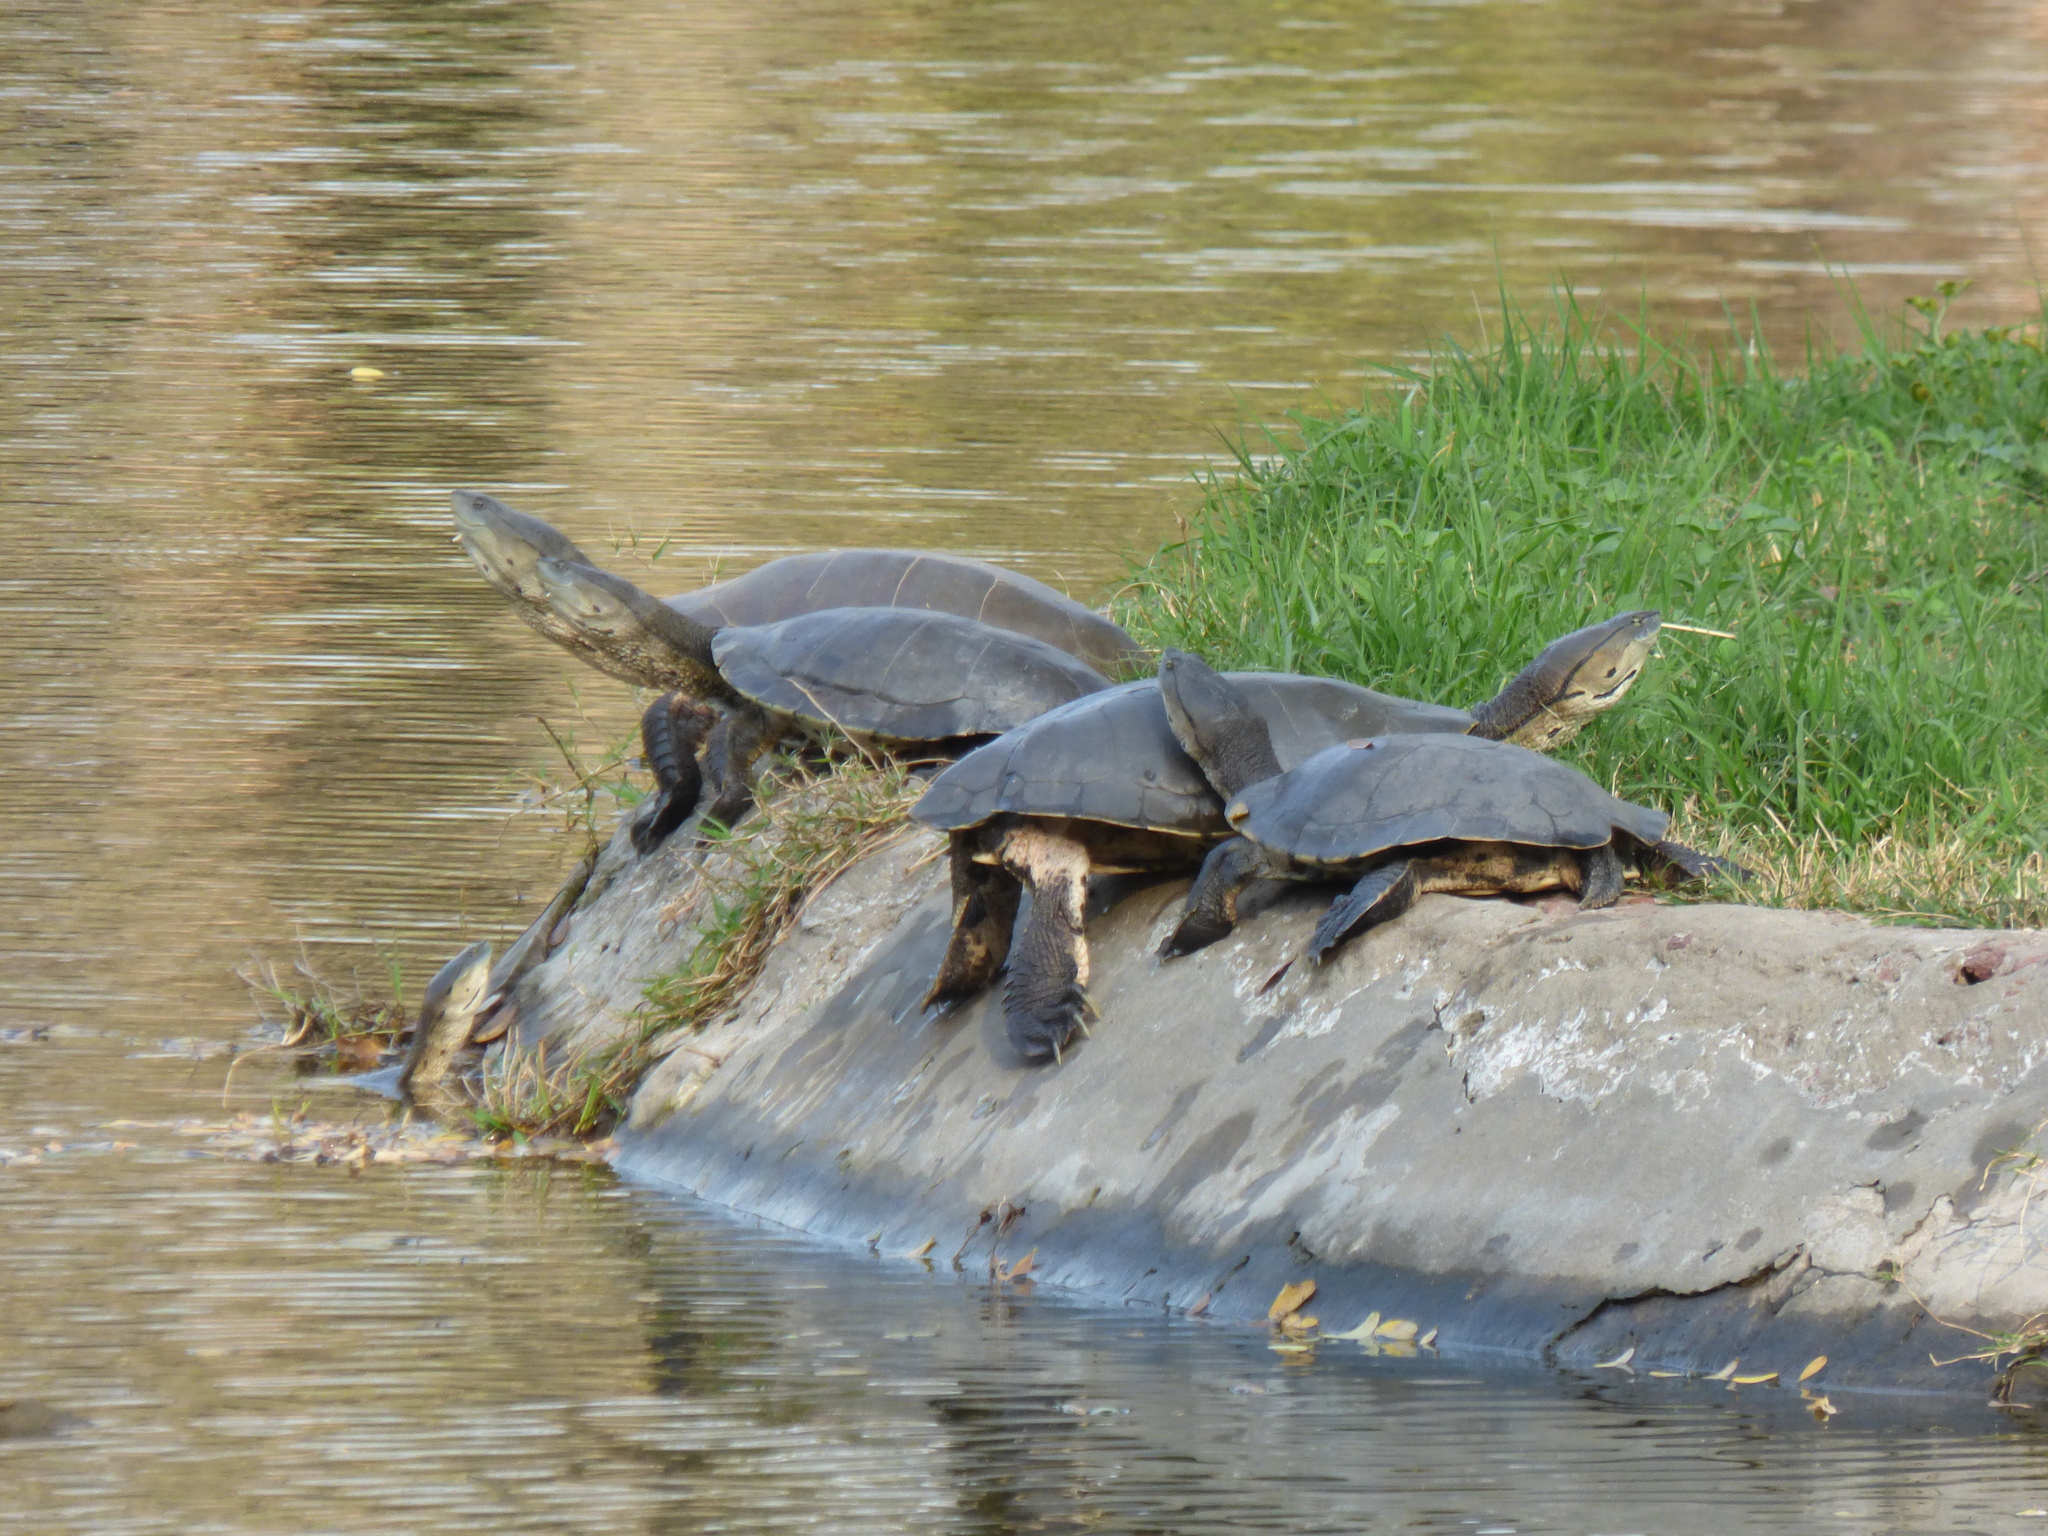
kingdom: Animalia
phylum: Chordata
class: Testudines
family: Chelidae
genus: Phrynops
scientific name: Phrynops hilarii
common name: Side-necked turtle of saint hillaire
